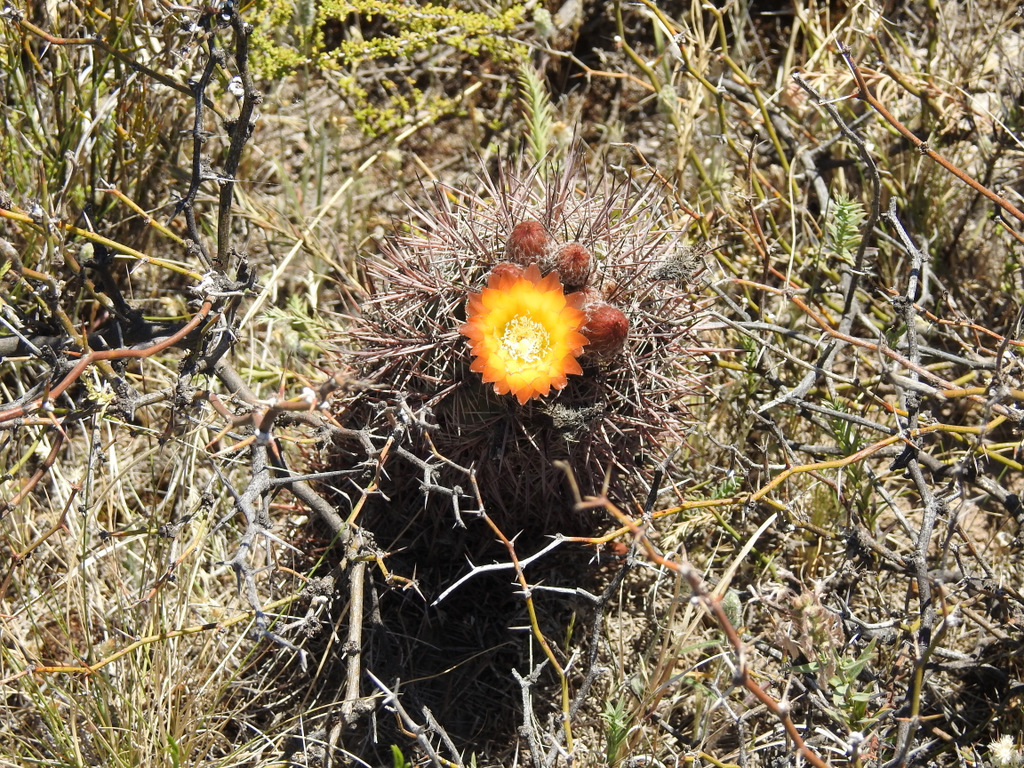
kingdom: Plantae
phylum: Tracheophyta
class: Magnoliopsida
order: Caryophyllales
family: Cactaceae
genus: Eriosyce
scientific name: Eriosyce strausiana
